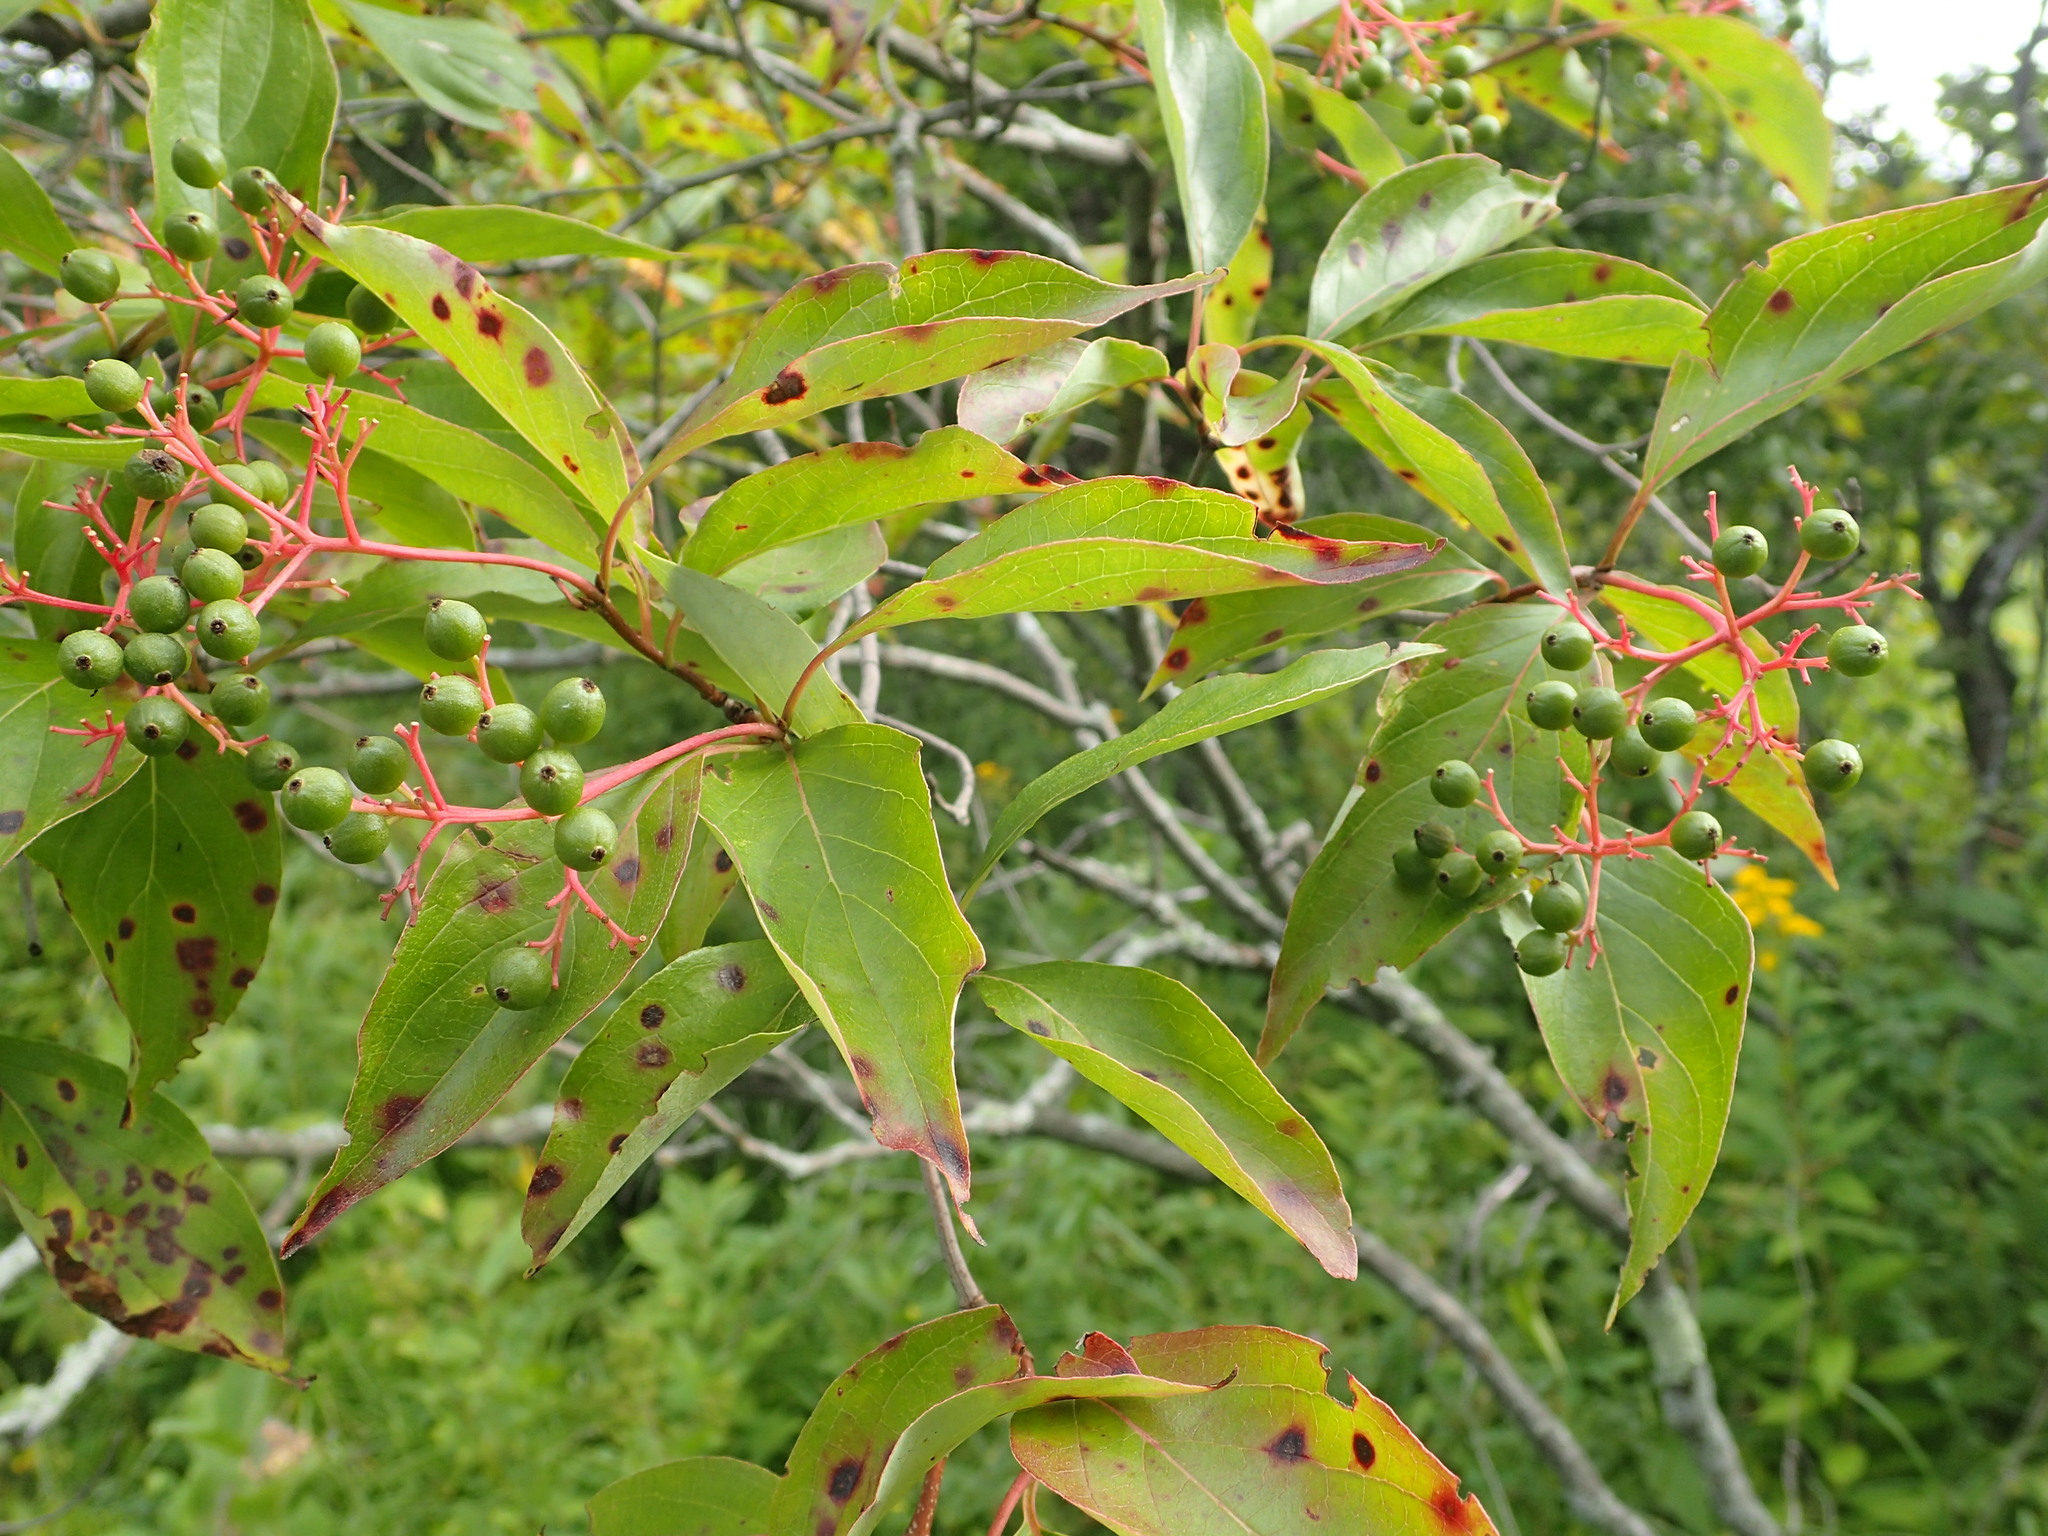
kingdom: Plantae
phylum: Tracheophyta
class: Magnoliopsida
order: Cornales
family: Cornaceae
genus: Cornus
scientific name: Cornus racemosa
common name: Panicled dogwood
